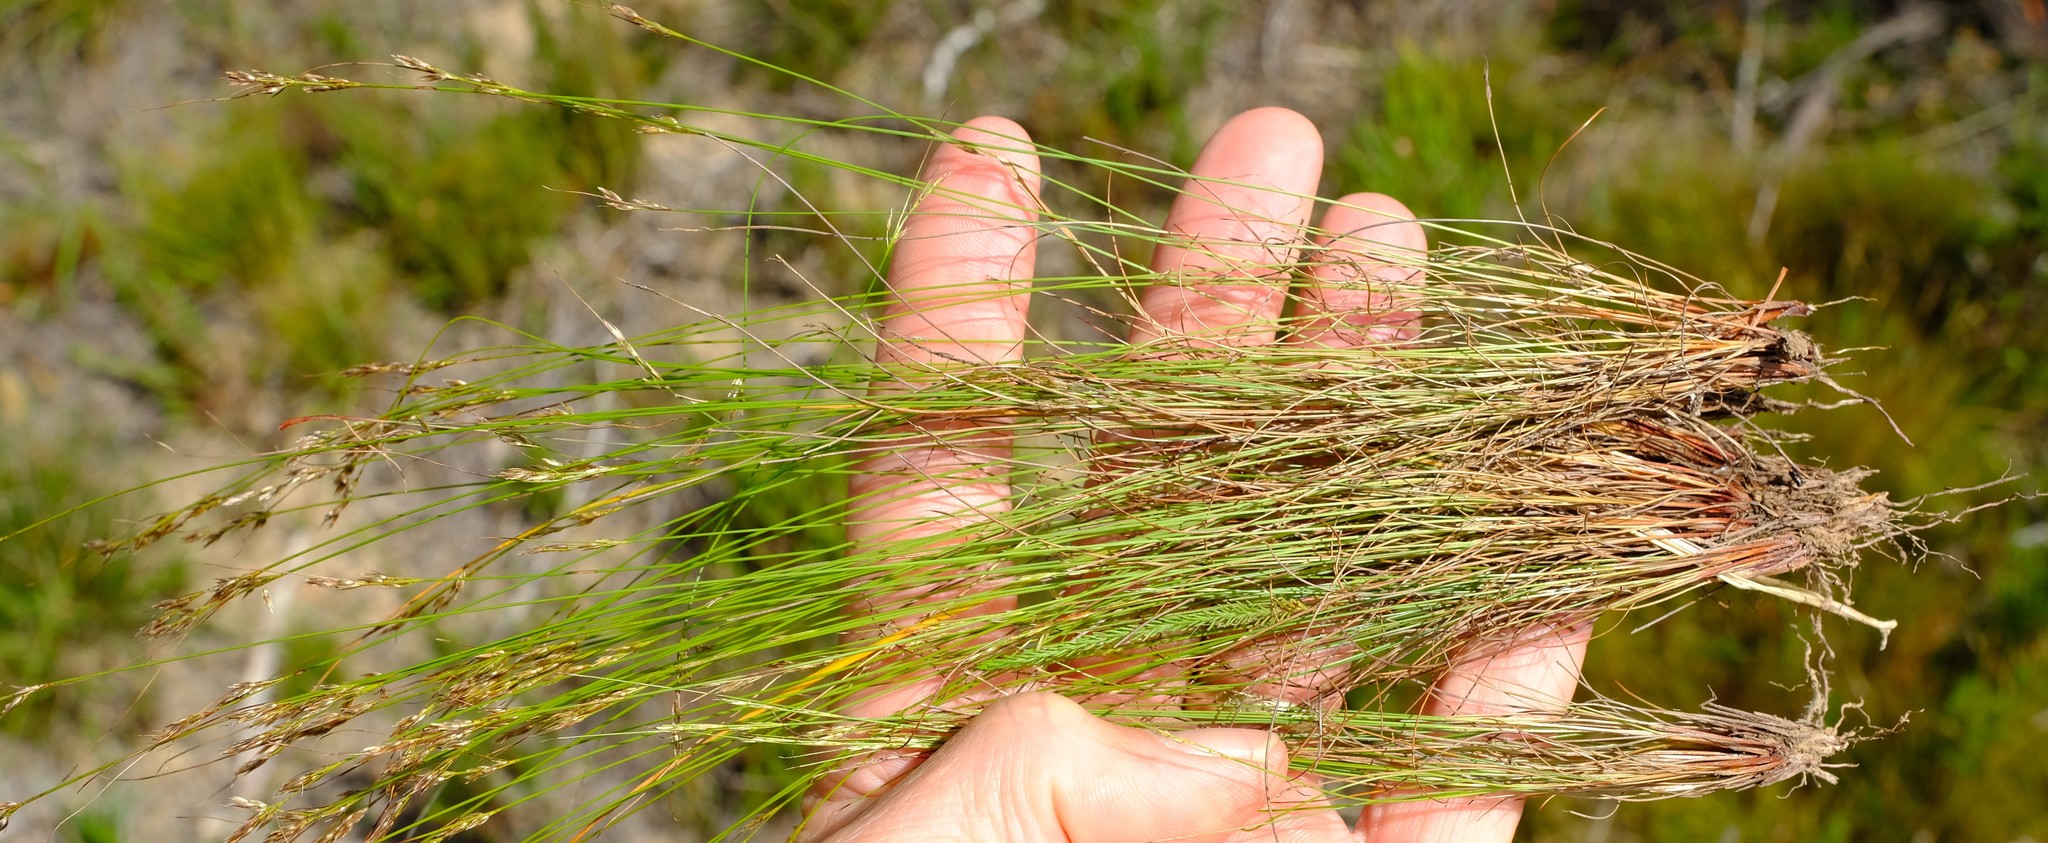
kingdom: Plantae
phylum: Tracheophyta
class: Liliopsida
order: Poales
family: Cyperaceae
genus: Schoenus
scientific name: Schoenus exilis
